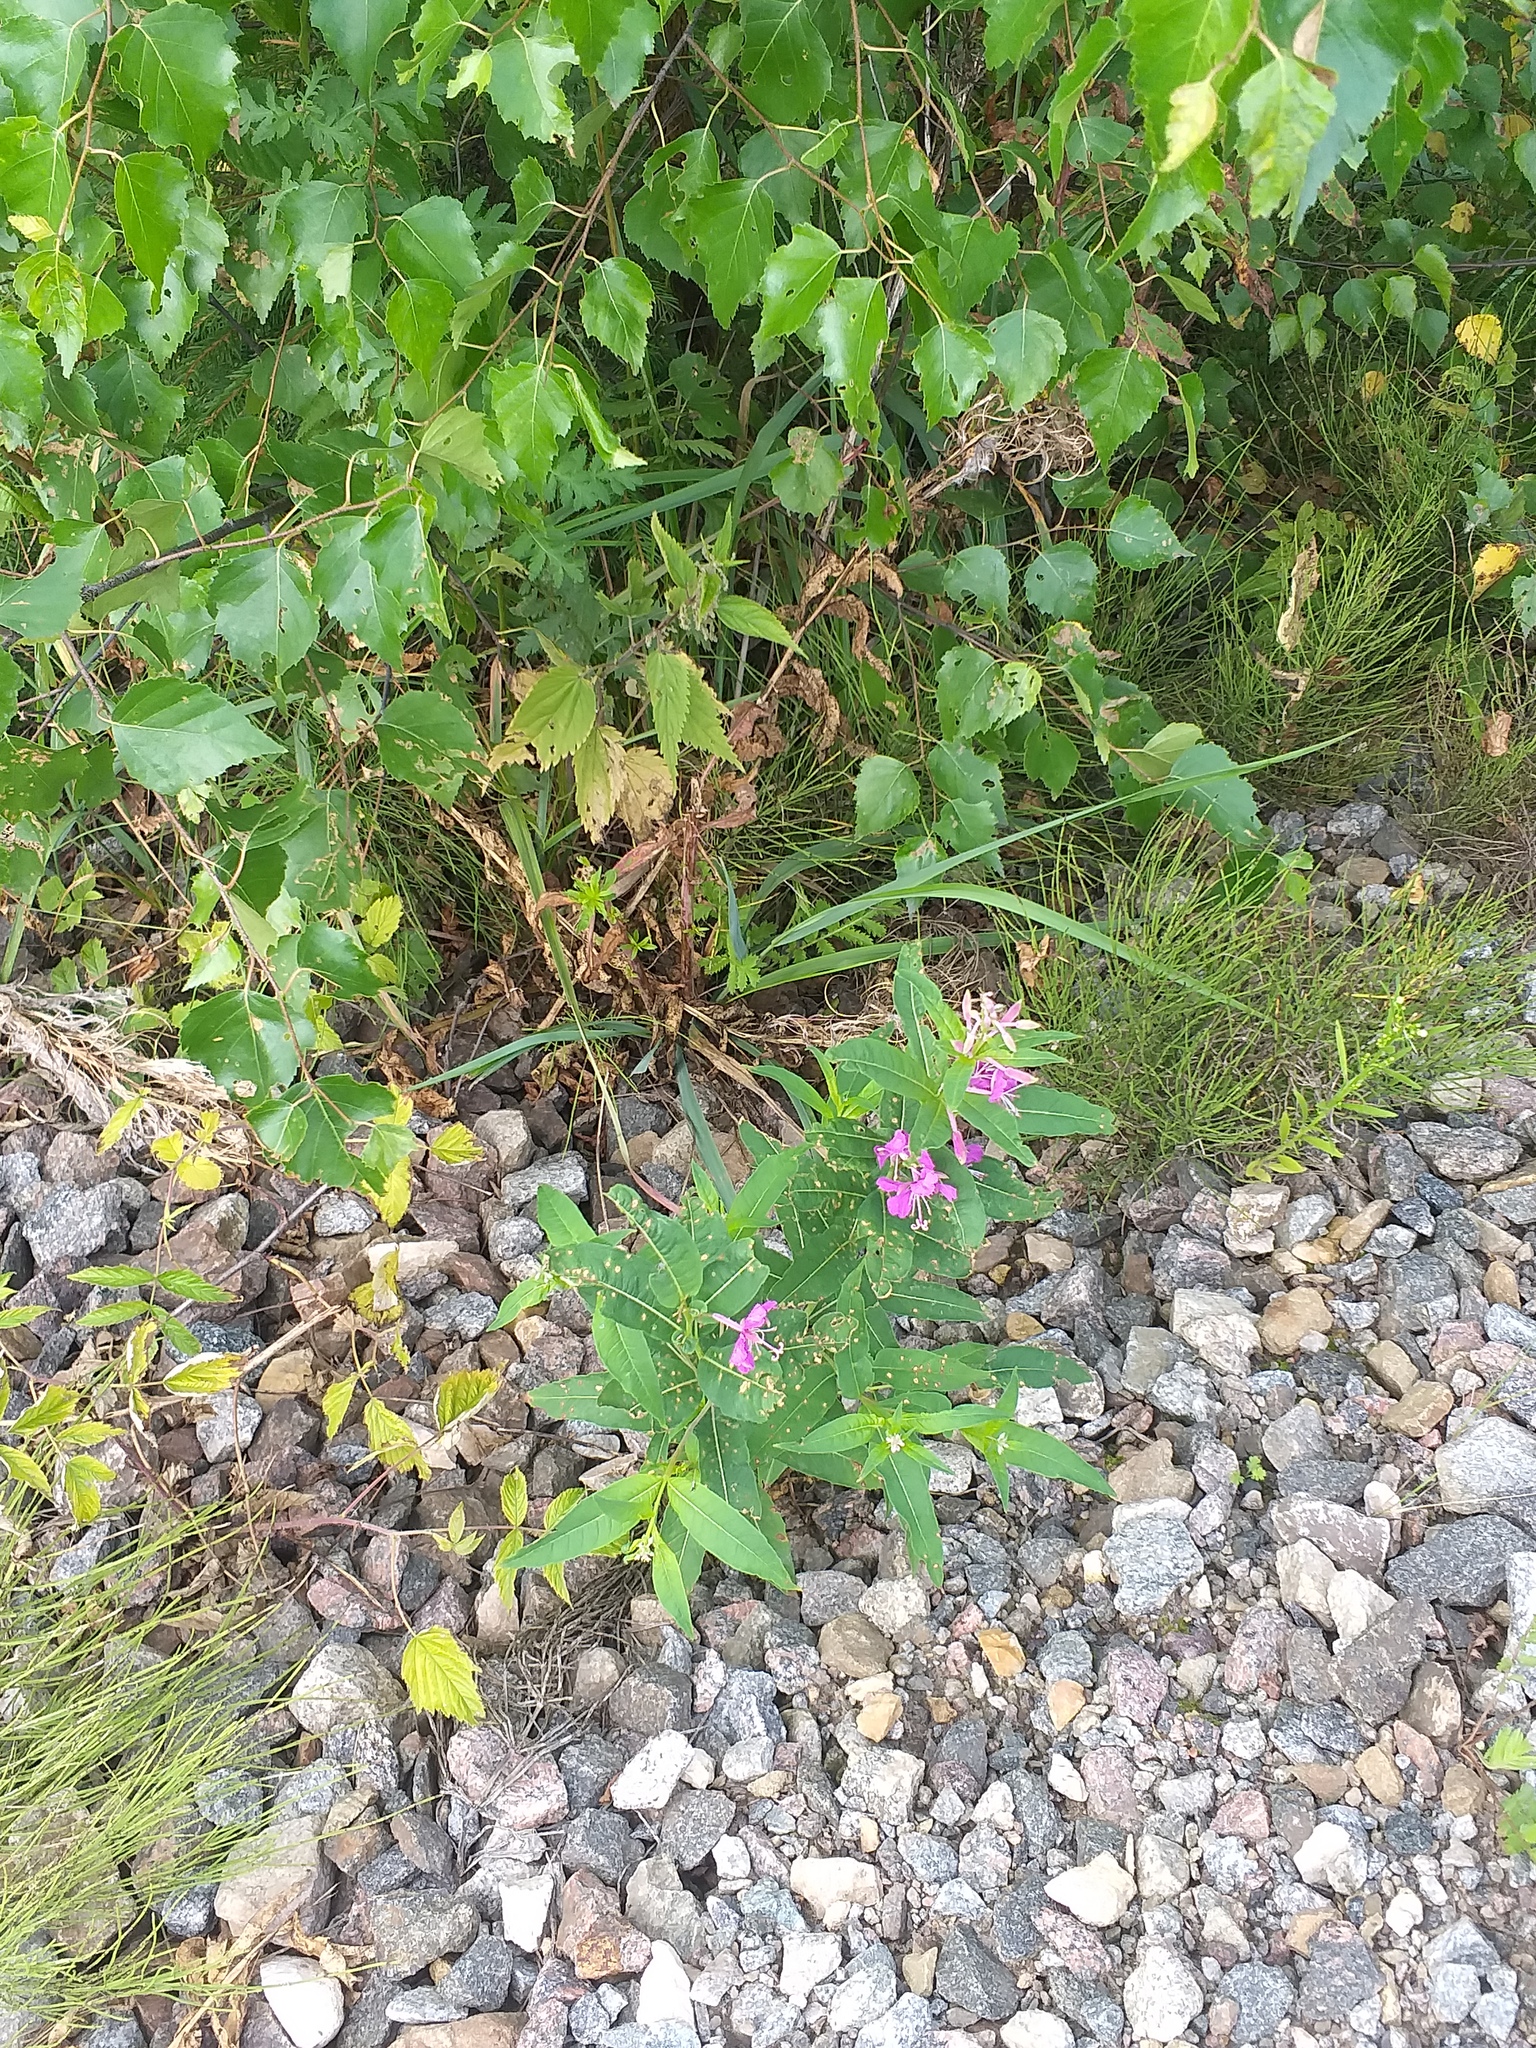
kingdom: Plantae
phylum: Tracheophyta
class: Magnoliopsida
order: Myrtales
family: Onagraceae
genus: Chamaenerion
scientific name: Chamaenerion angustifolium
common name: Fireweed
